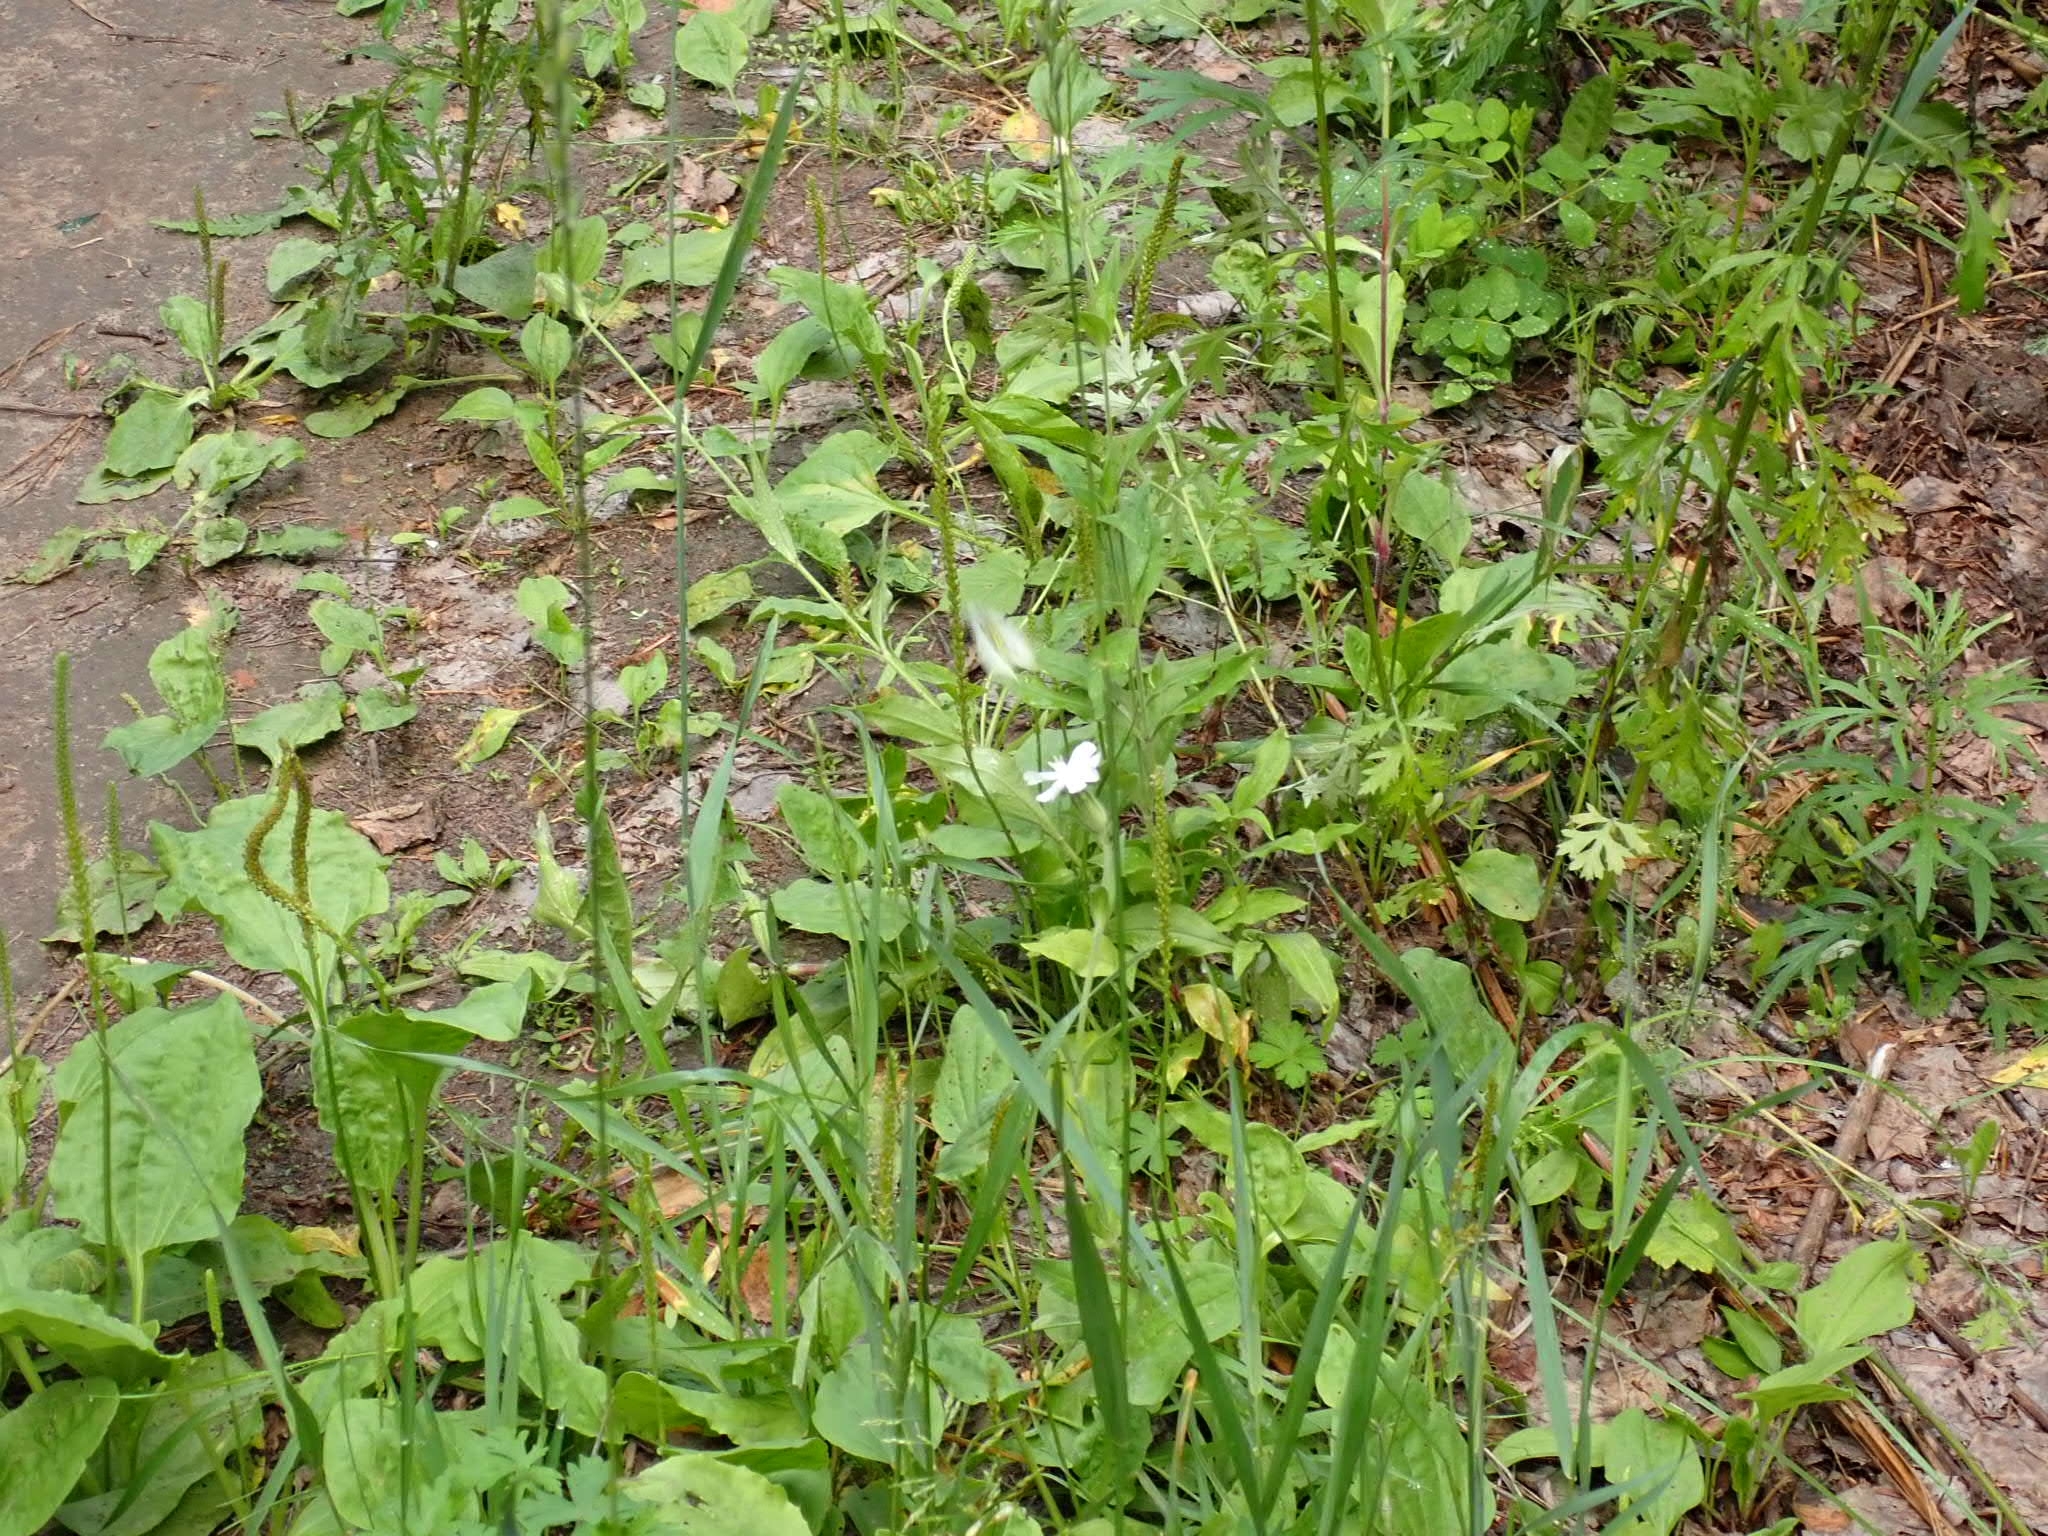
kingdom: Plantae
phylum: Tracheophyta
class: Magnoliopsida
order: Caryophyllales
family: Caryophyllaceae
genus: Silene
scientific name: Silene latifolia
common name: White campion
